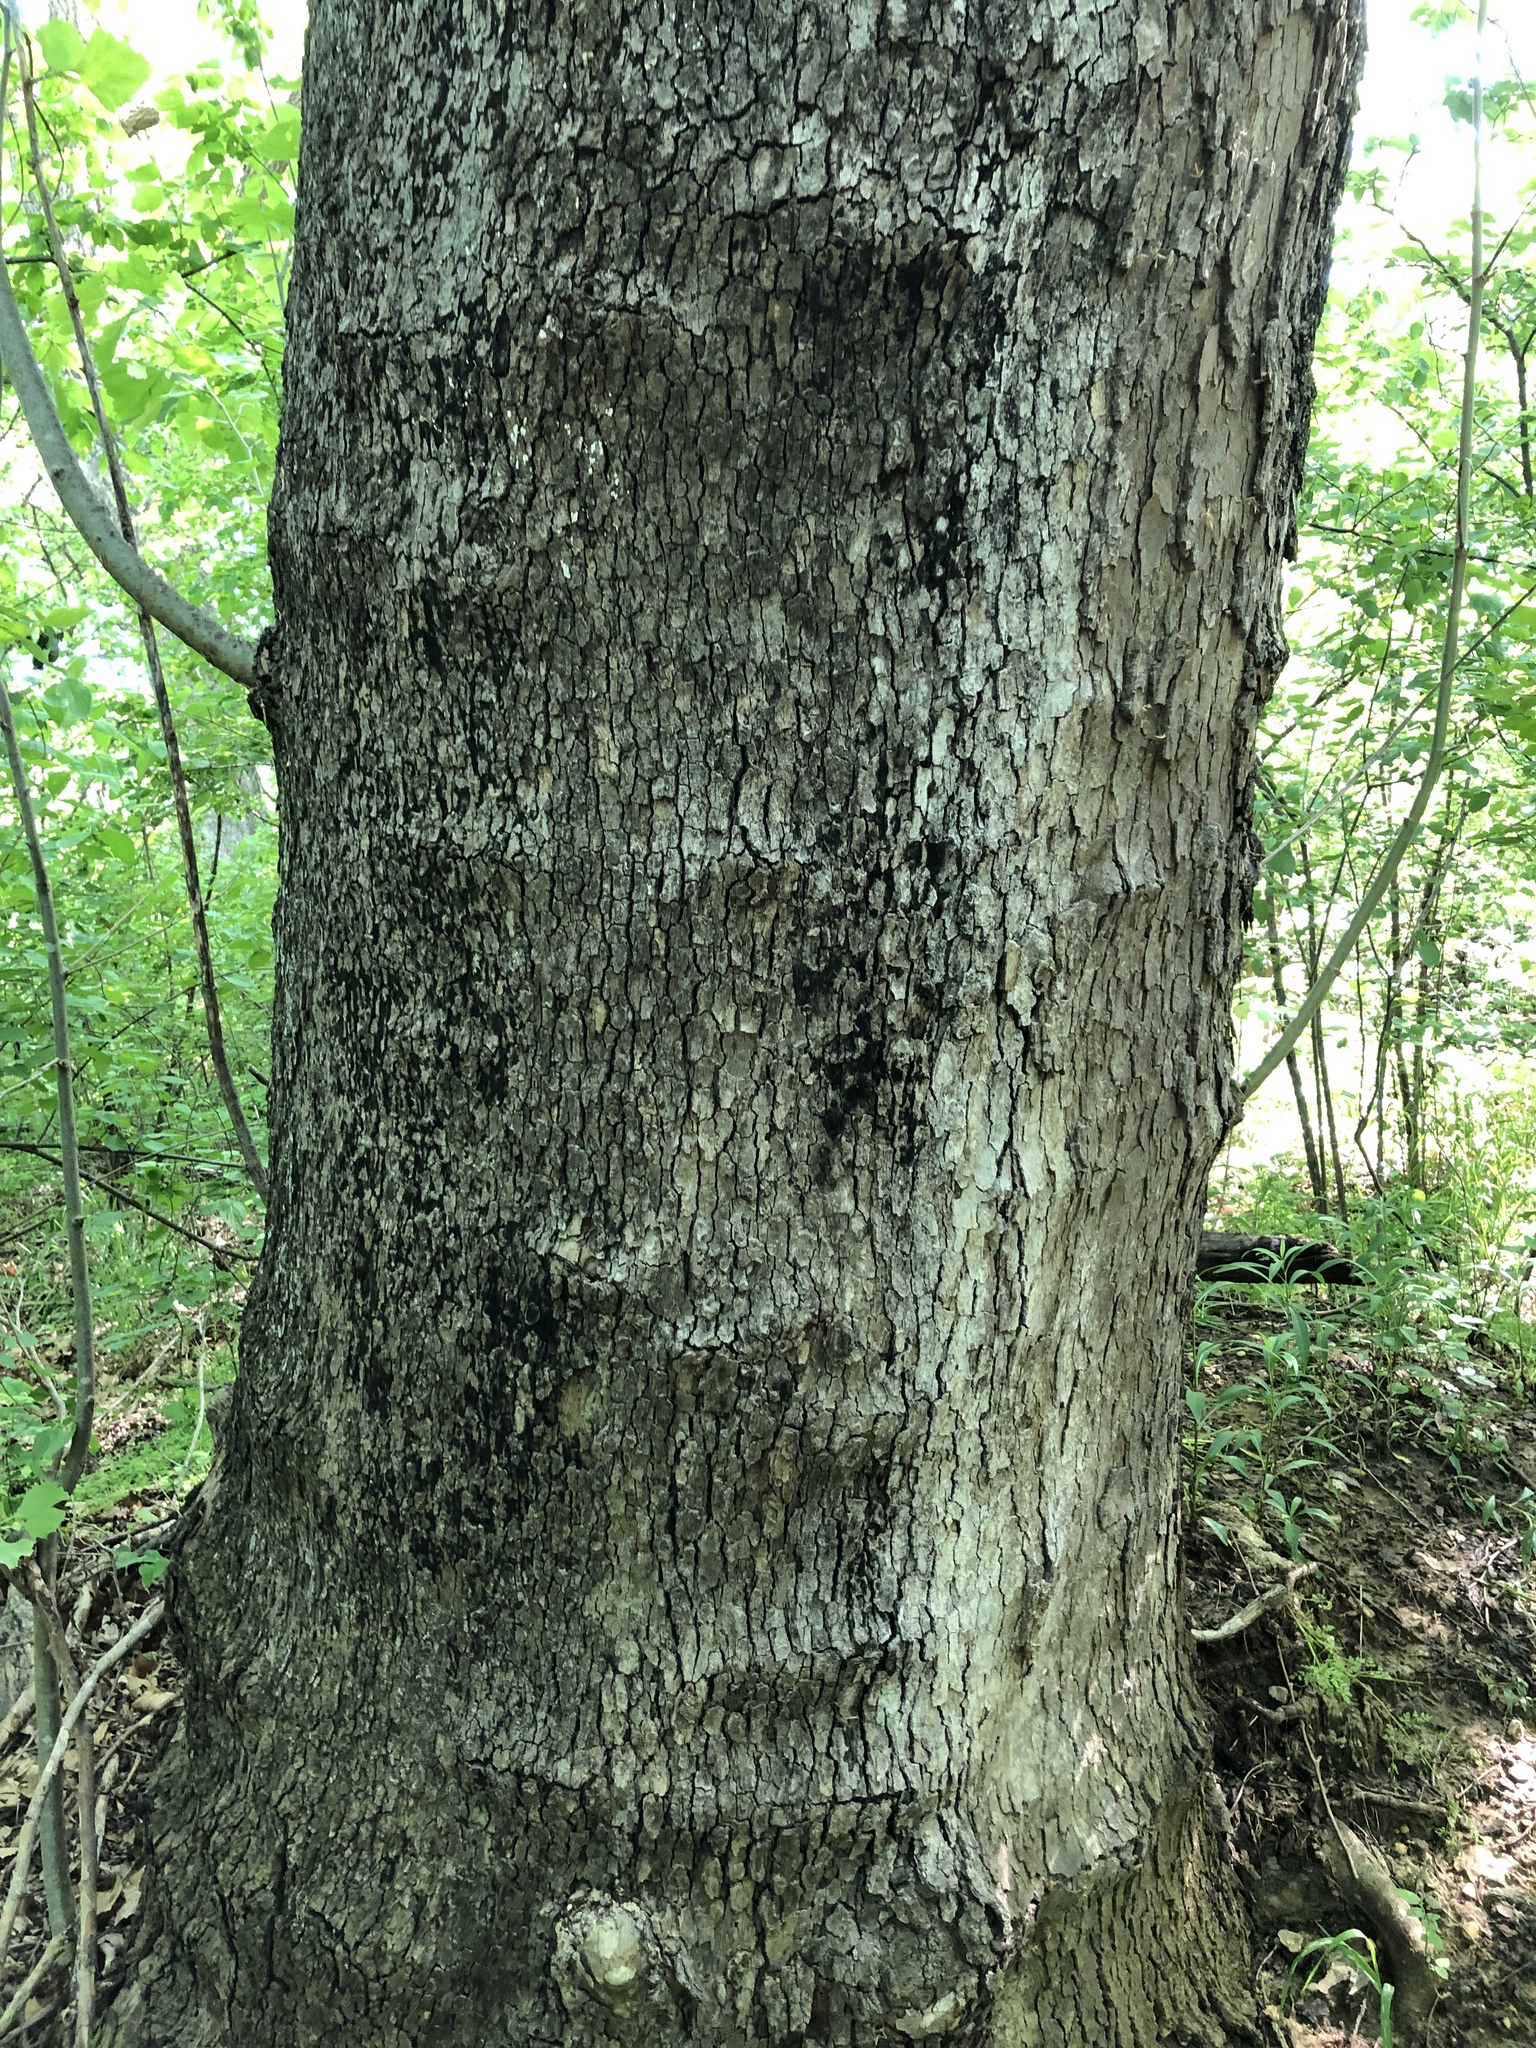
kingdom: Plantae
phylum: Tracheophyta
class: Magnoliopsida
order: Proteales
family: Platanaceae
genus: Platanus
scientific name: Platanus occidentalis
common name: American sycamore
